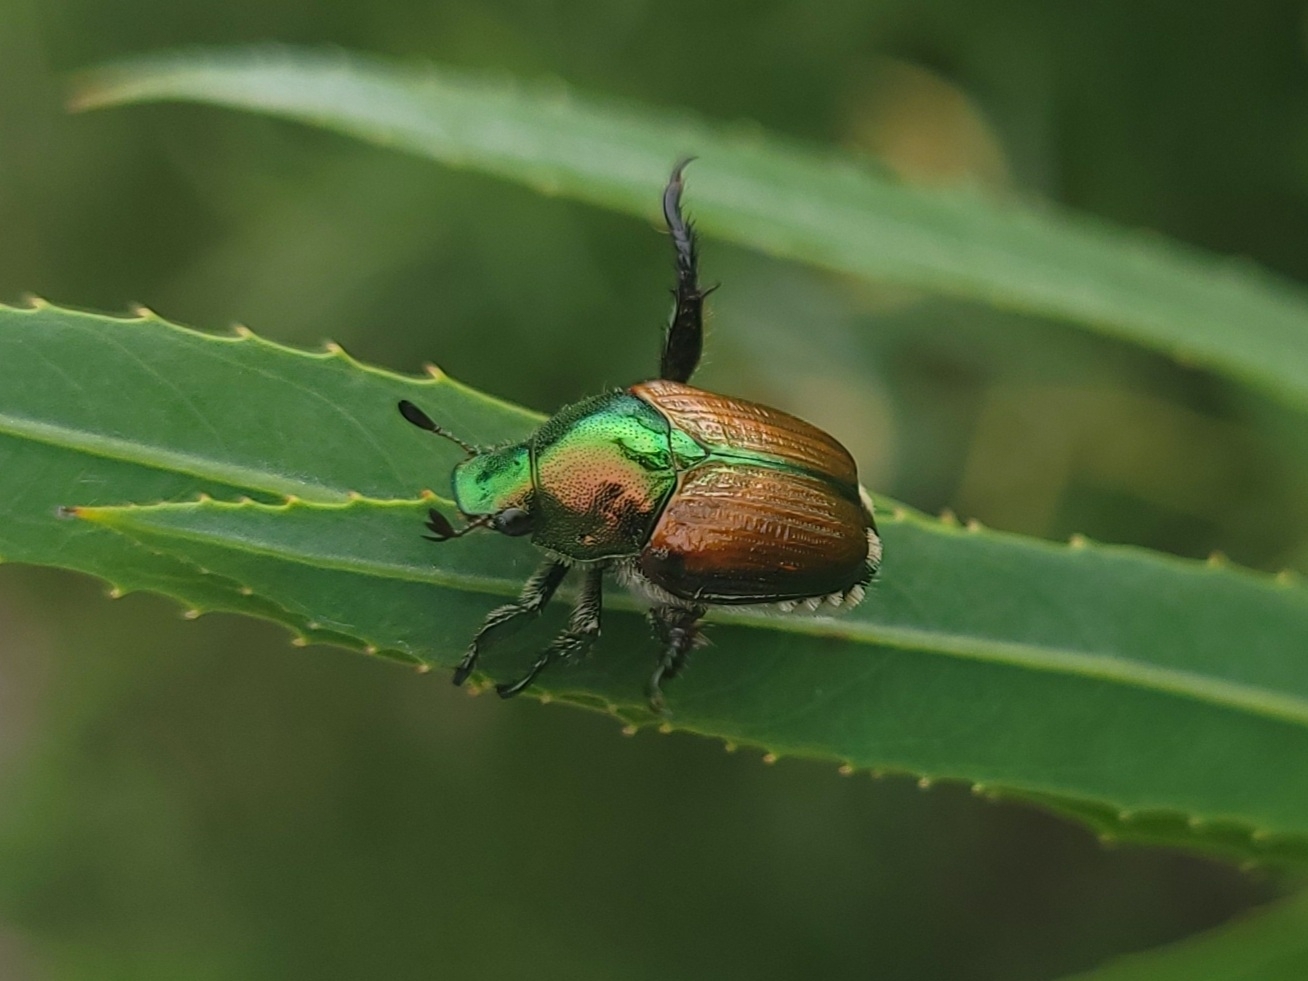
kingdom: Animalia
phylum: Arthropoda
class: Insecta
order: Coleoptera
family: Scarabaeidae
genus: Popillia
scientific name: Popillia japonica
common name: Japanese beetle
